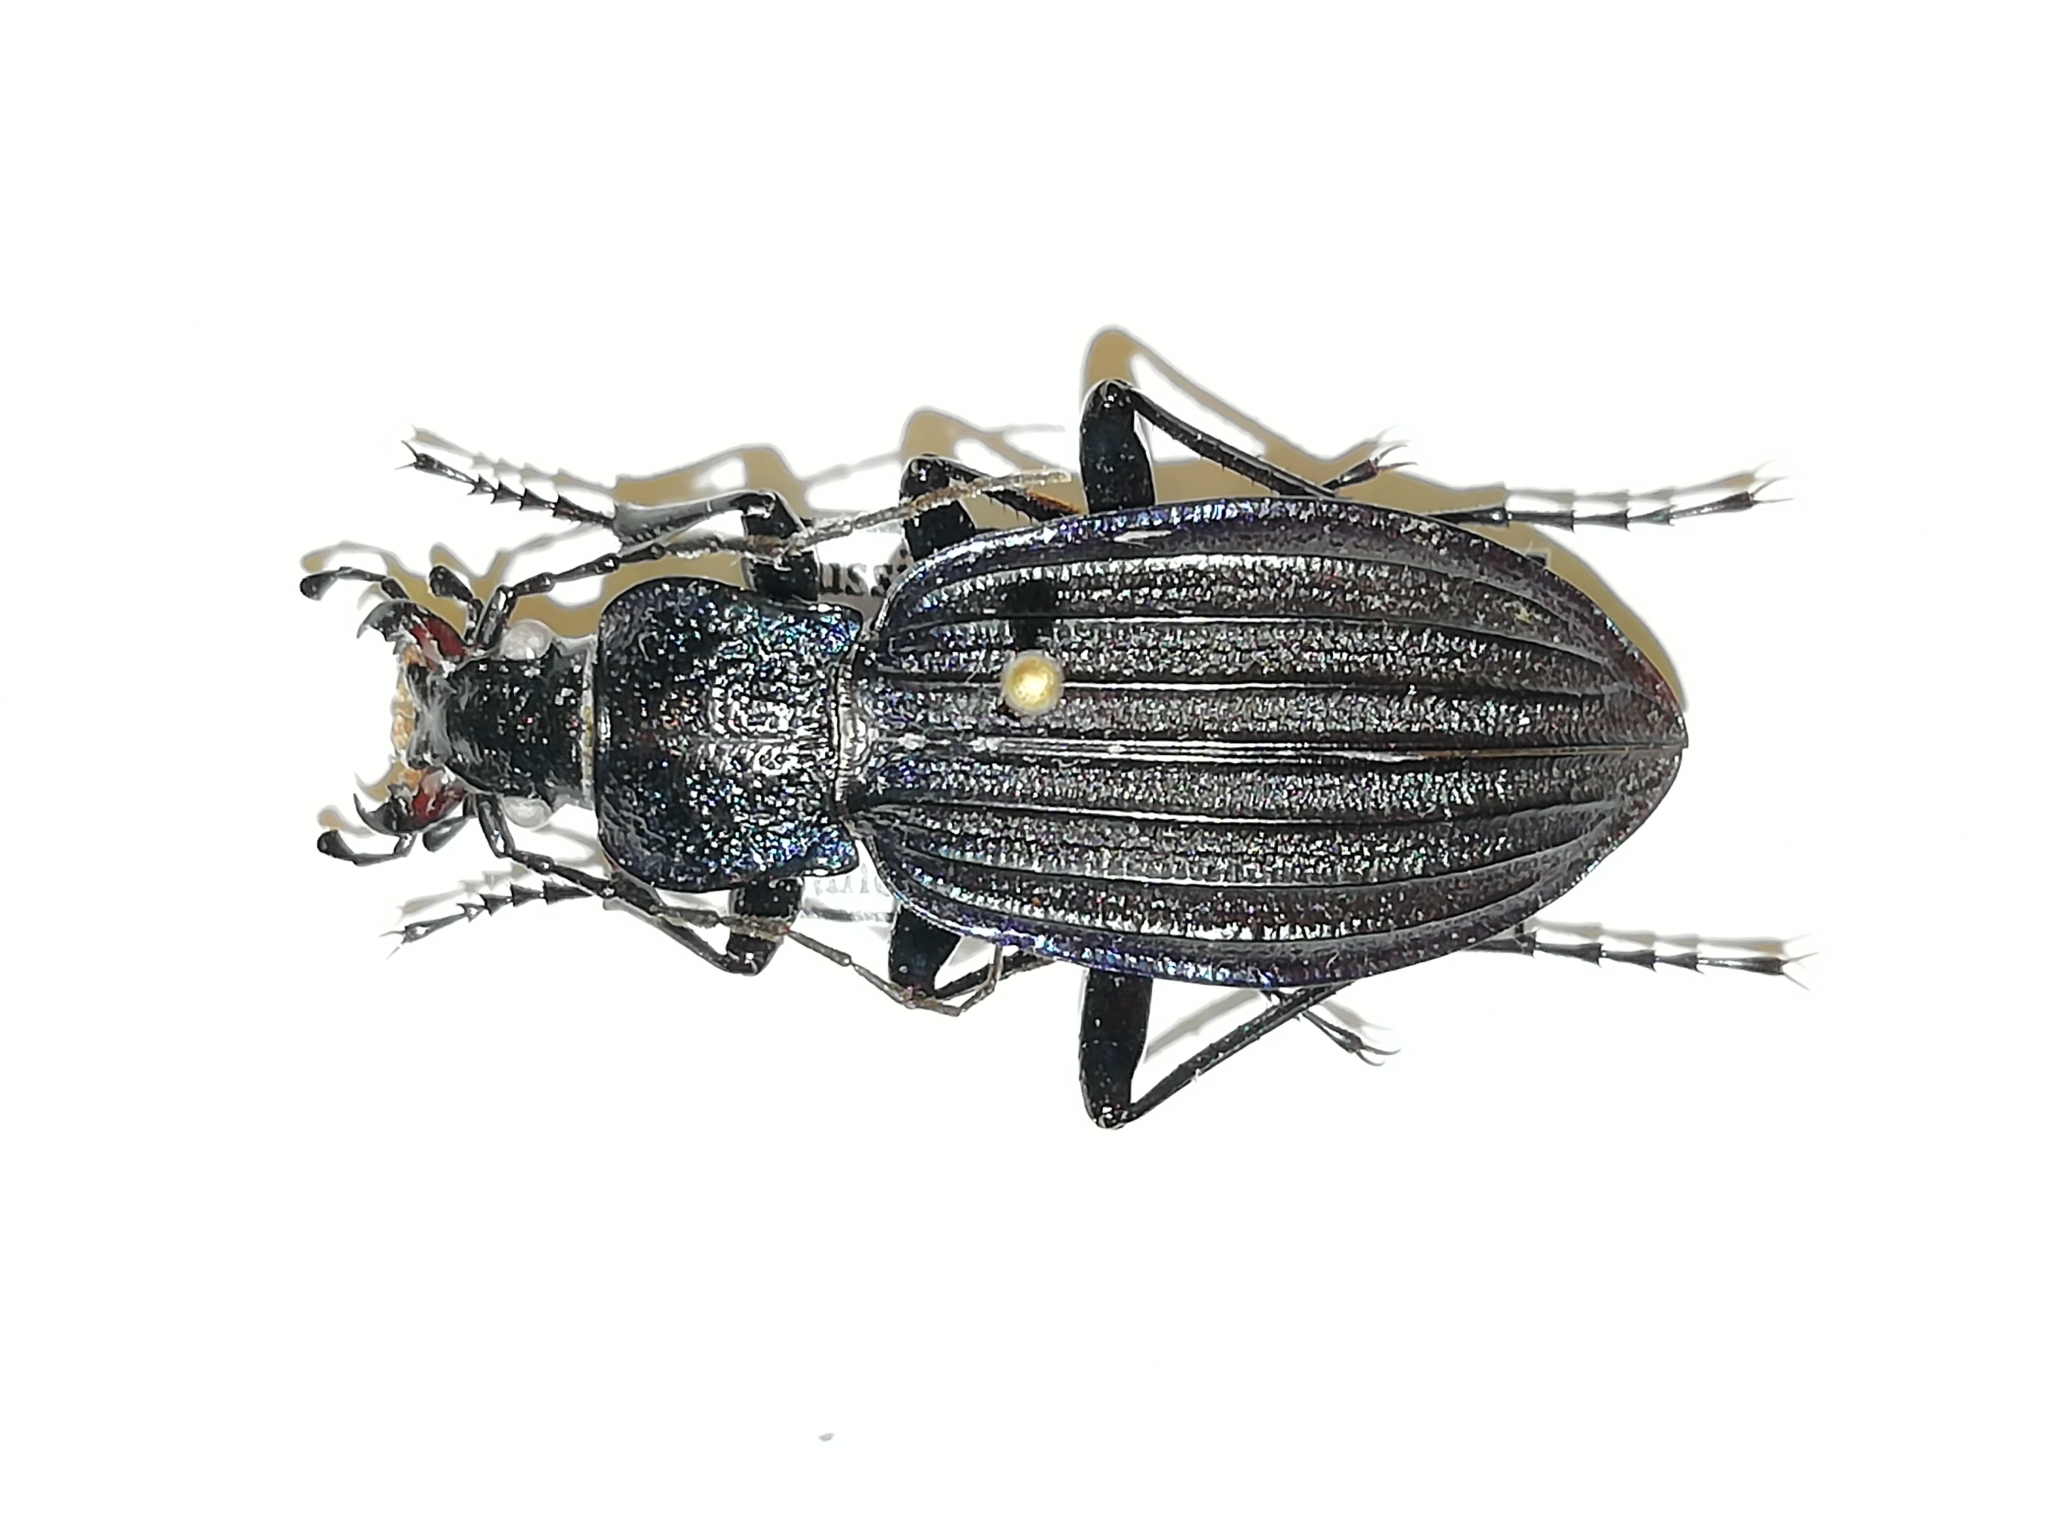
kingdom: Animalia
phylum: Arthropoda
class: Insecta
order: Coleoptera
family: Carabidae
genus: Carabus
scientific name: Carabus exaratus
